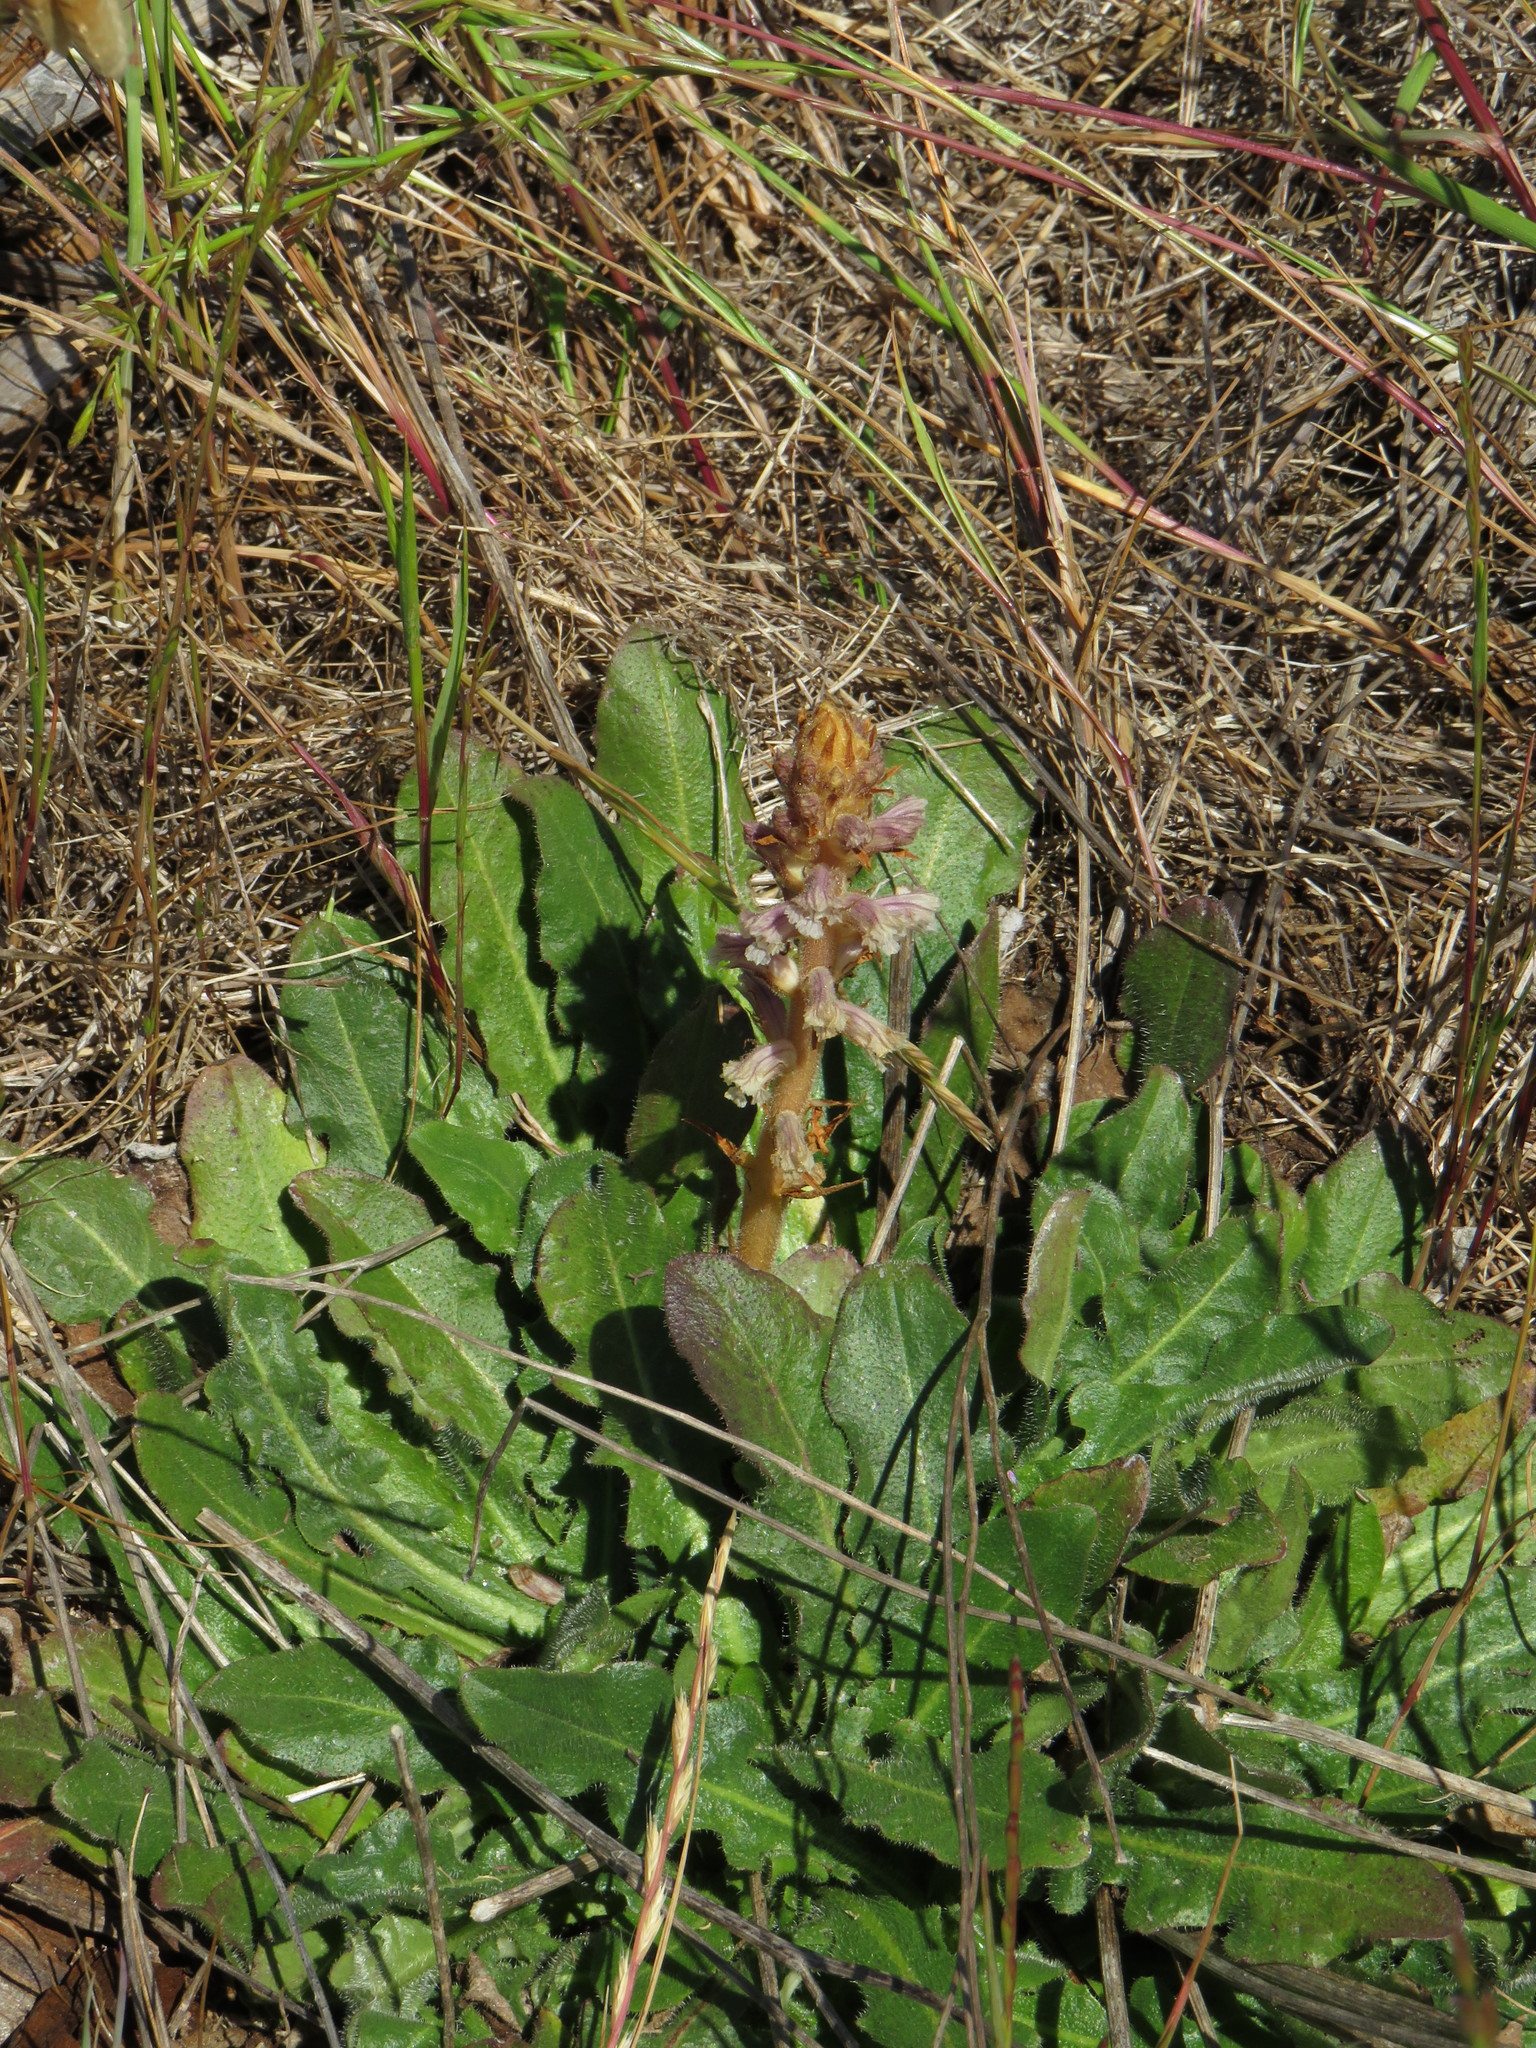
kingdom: Plantae
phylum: Tracheophyta
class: Magnoliopsida
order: Lamiales
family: Orobanchaceae
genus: Orobanche
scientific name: Orobanche minor
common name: Common broomrape
